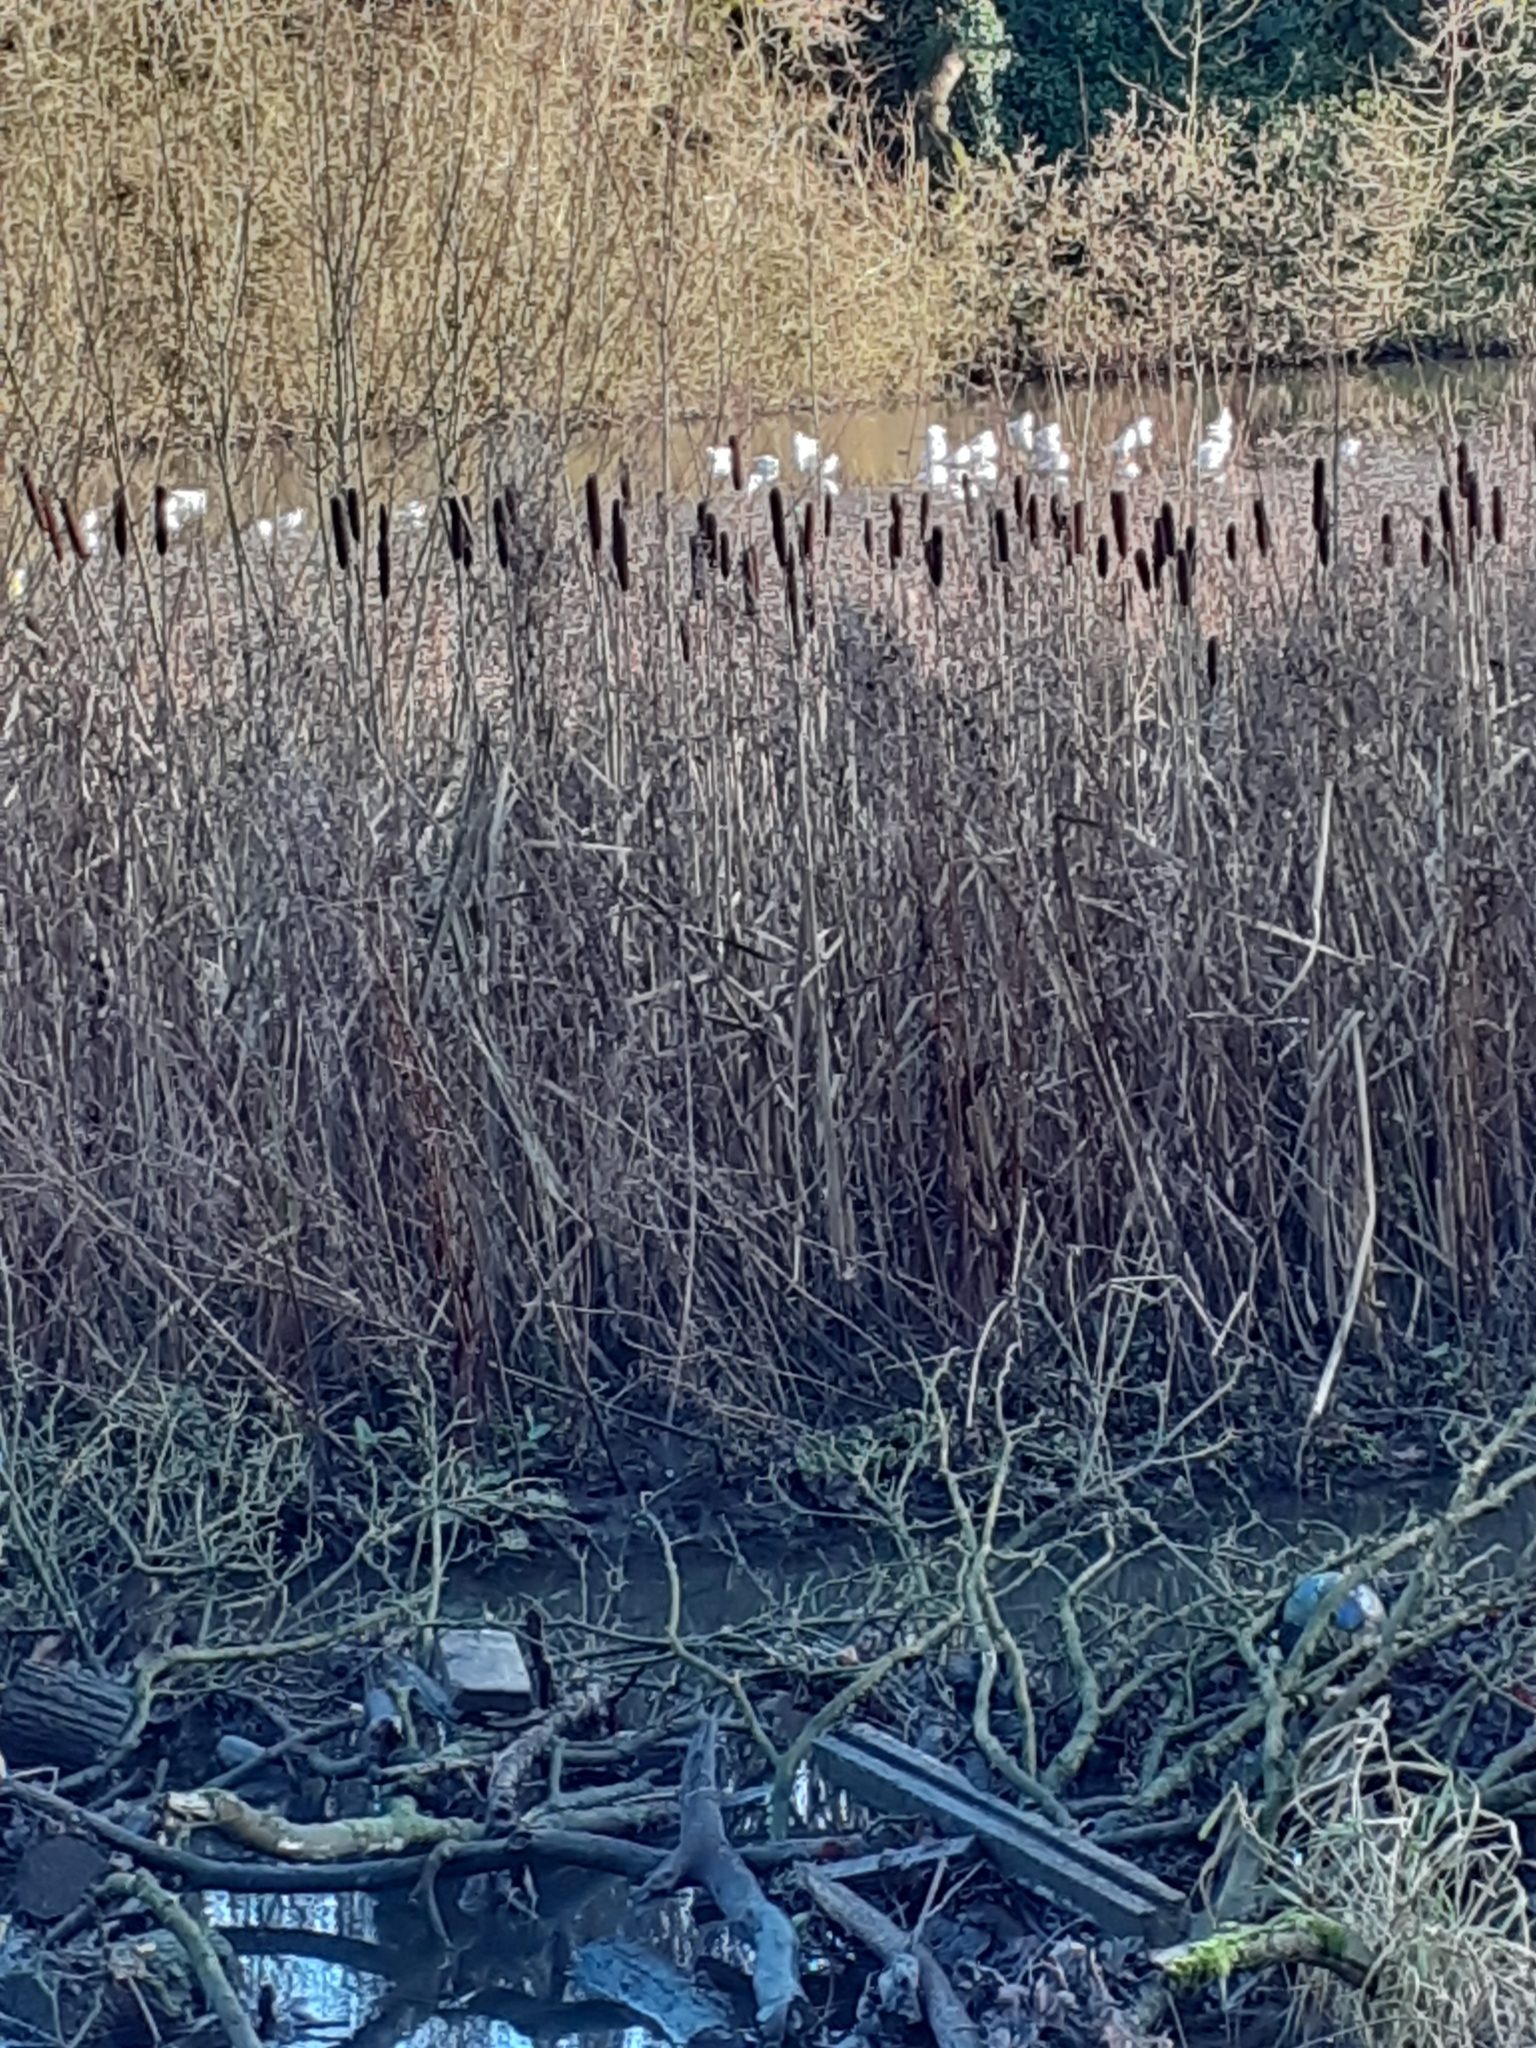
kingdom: Plantae
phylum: Tracheophyta
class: Liliopsida
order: Poales
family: Typhaceae
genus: Typha
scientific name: Typha latifolia
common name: Broadleaf cattail
